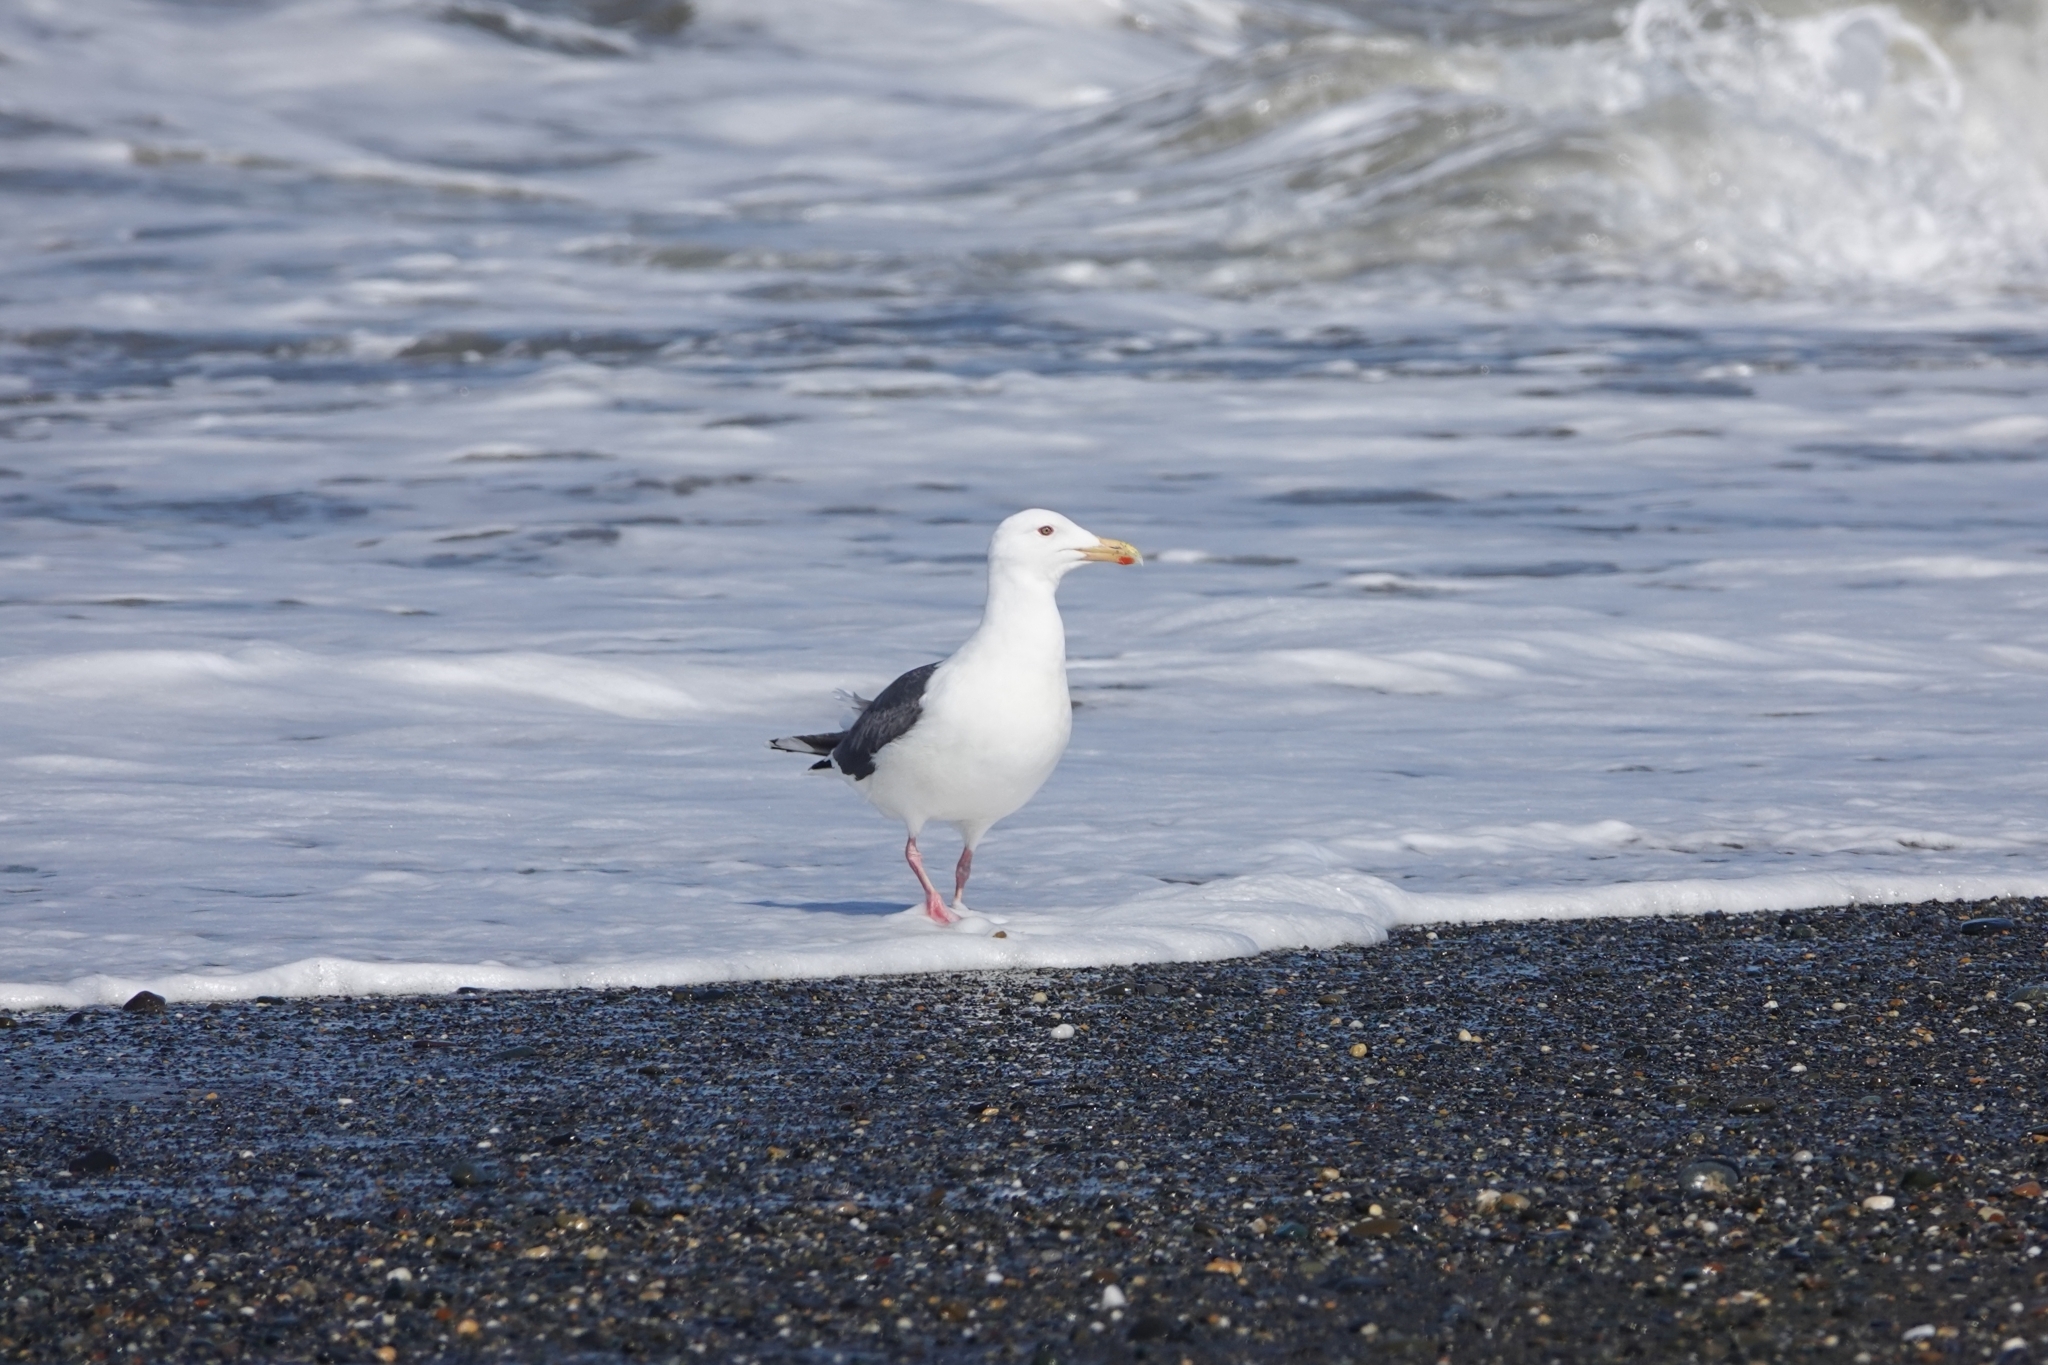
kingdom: Animalia
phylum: Chordata
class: Aves
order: Charadriiformes
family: Laridae
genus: Larus
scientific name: Larus schistisagus
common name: Slaty-backed gull
